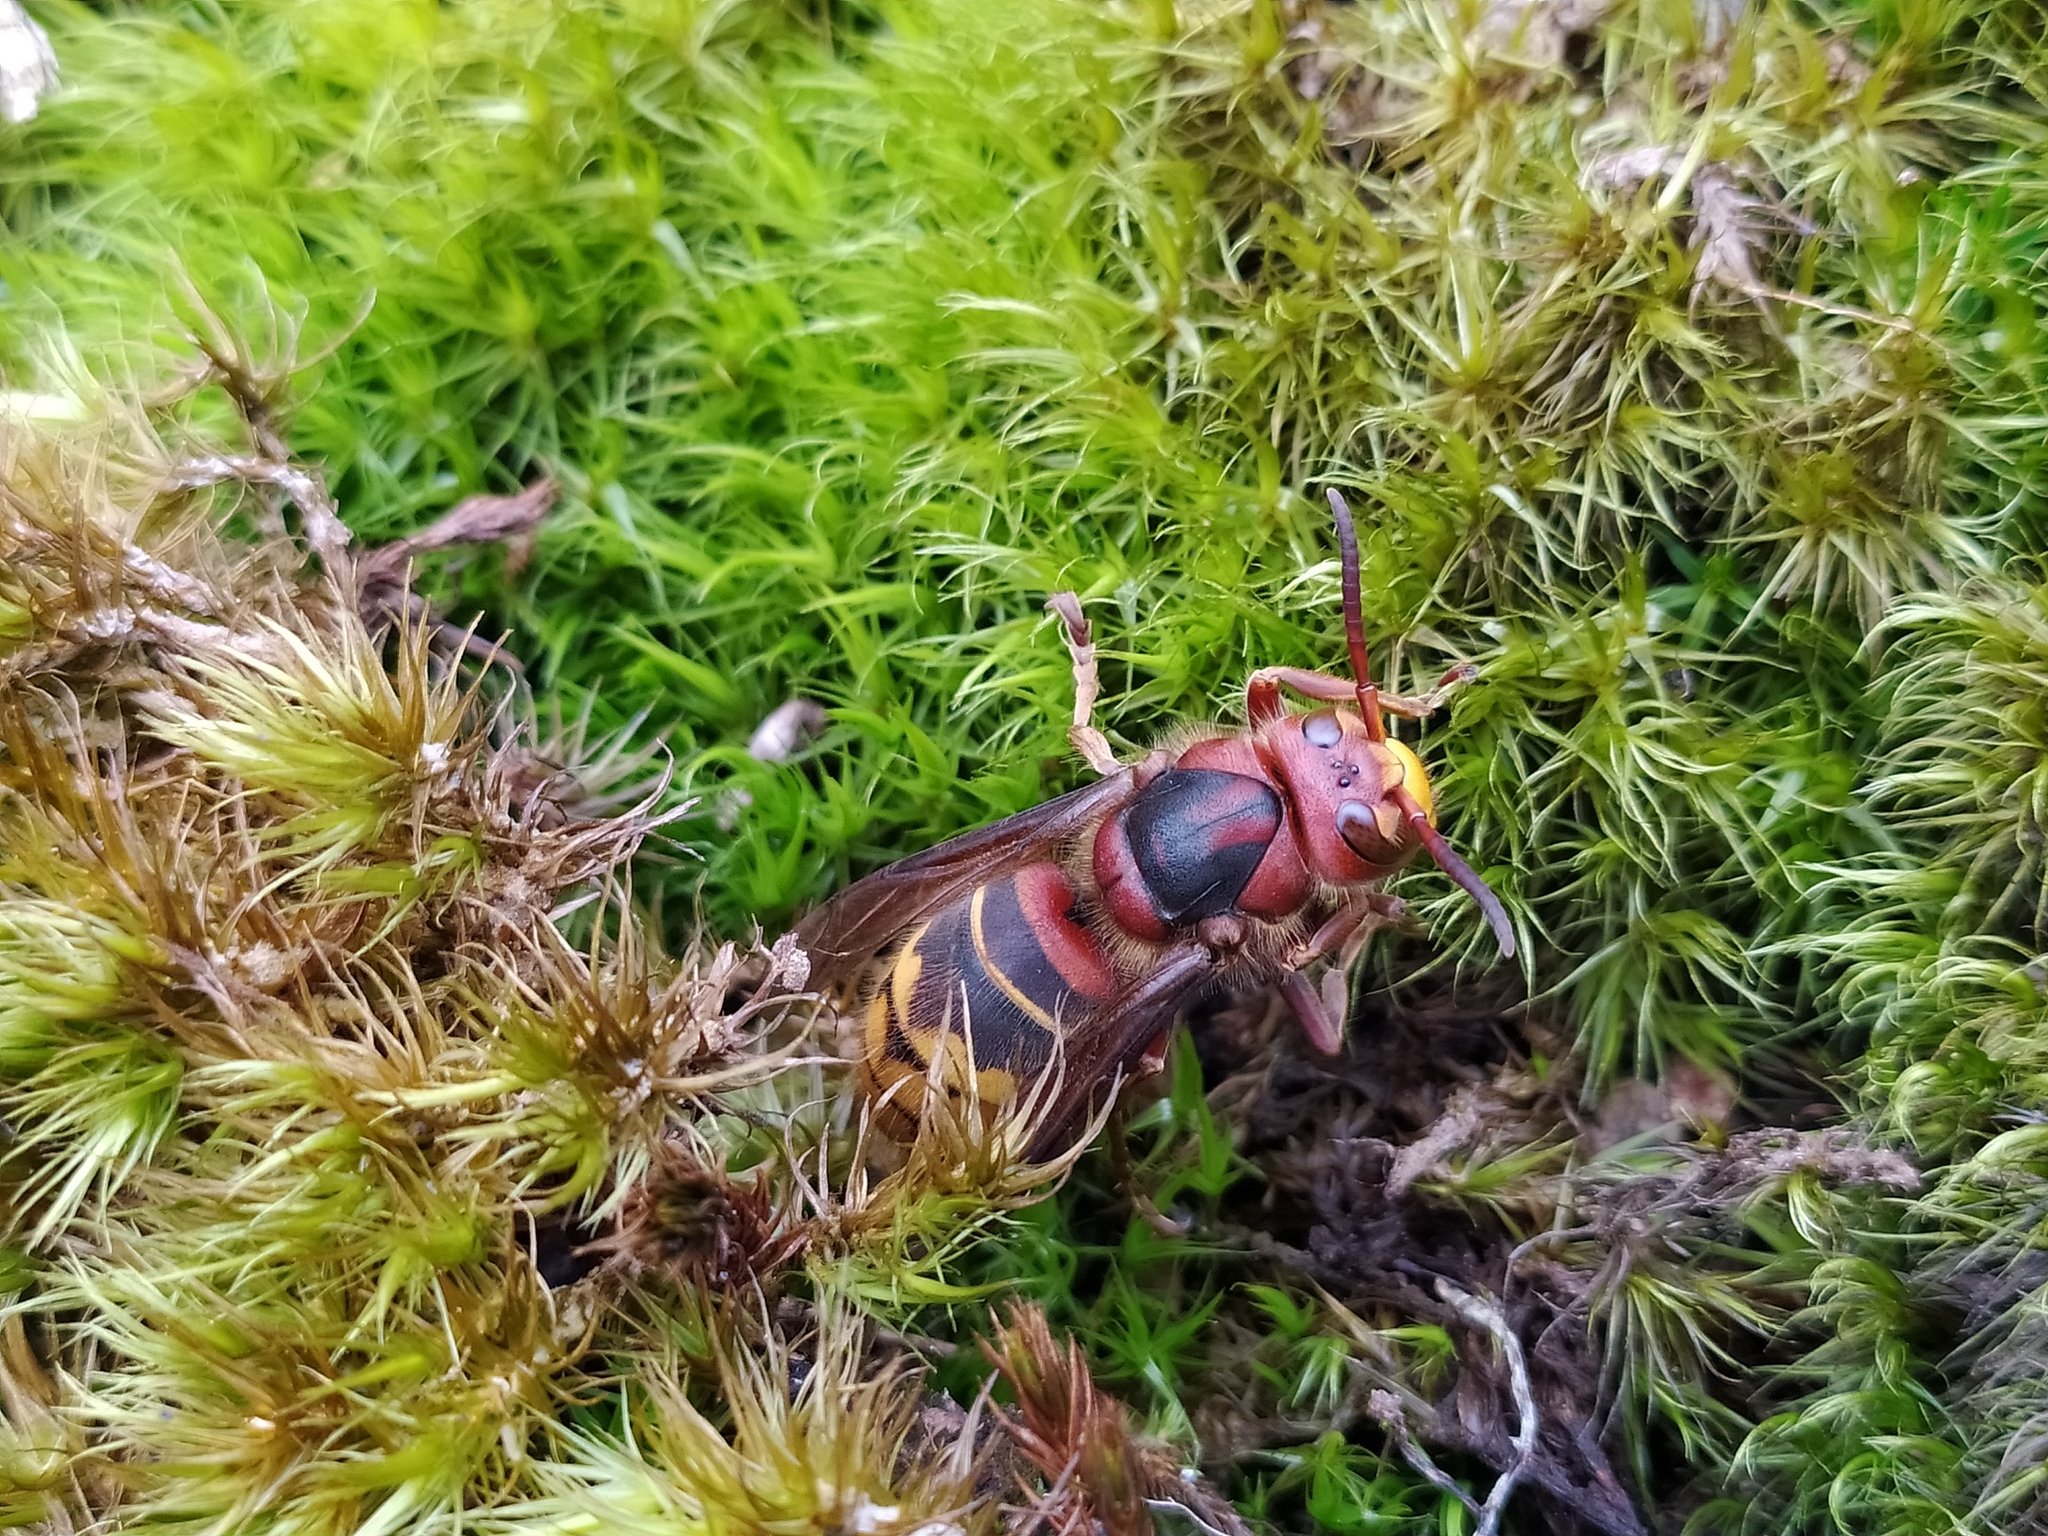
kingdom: Animalia
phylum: Arthropoda
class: Insecta
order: Hymenoptera
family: Vespidae
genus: Vespa
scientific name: Vespa crabro
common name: Hornet
